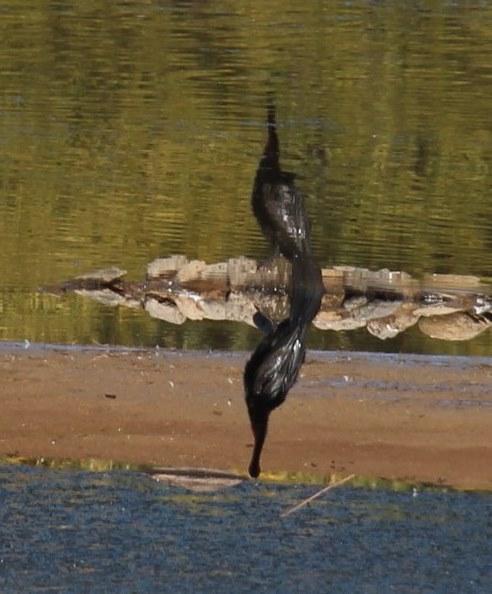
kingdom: Animalia
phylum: Chordata
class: Aves
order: Suliformes
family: Anhingidae
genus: Anhinga
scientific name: Anhinga rufa
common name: African darter
